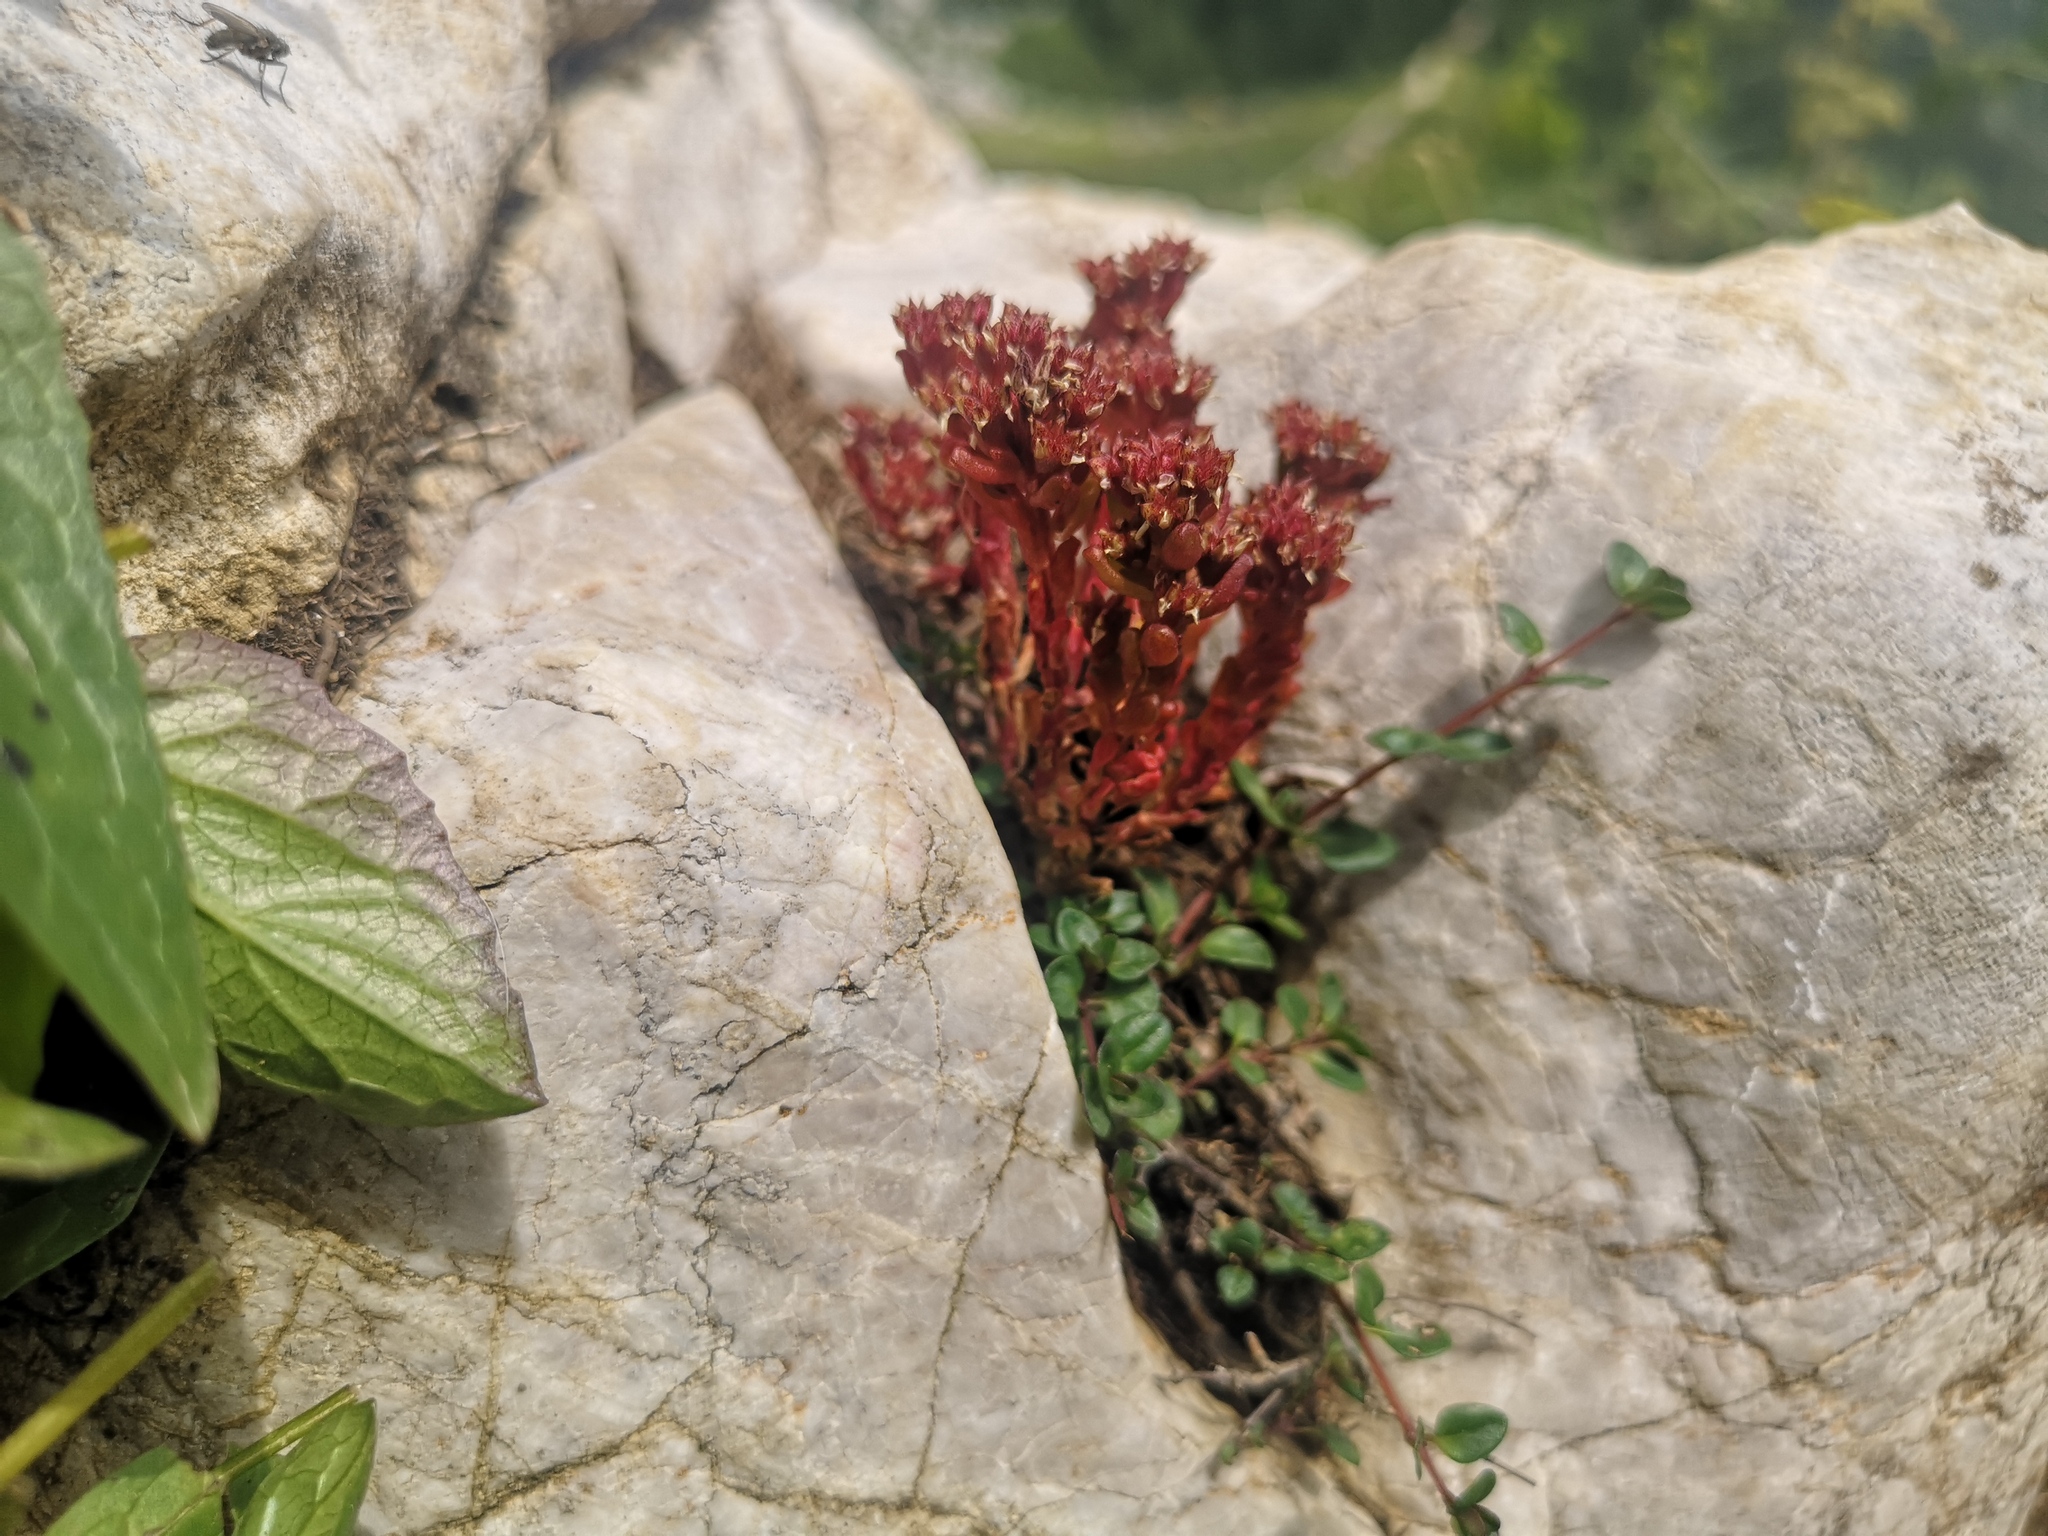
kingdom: Plantae
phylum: Tracheophyta
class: Magnoliopsida
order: Saxifragales
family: Crassulaceae
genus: Sedum
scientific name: Sedum atratum
